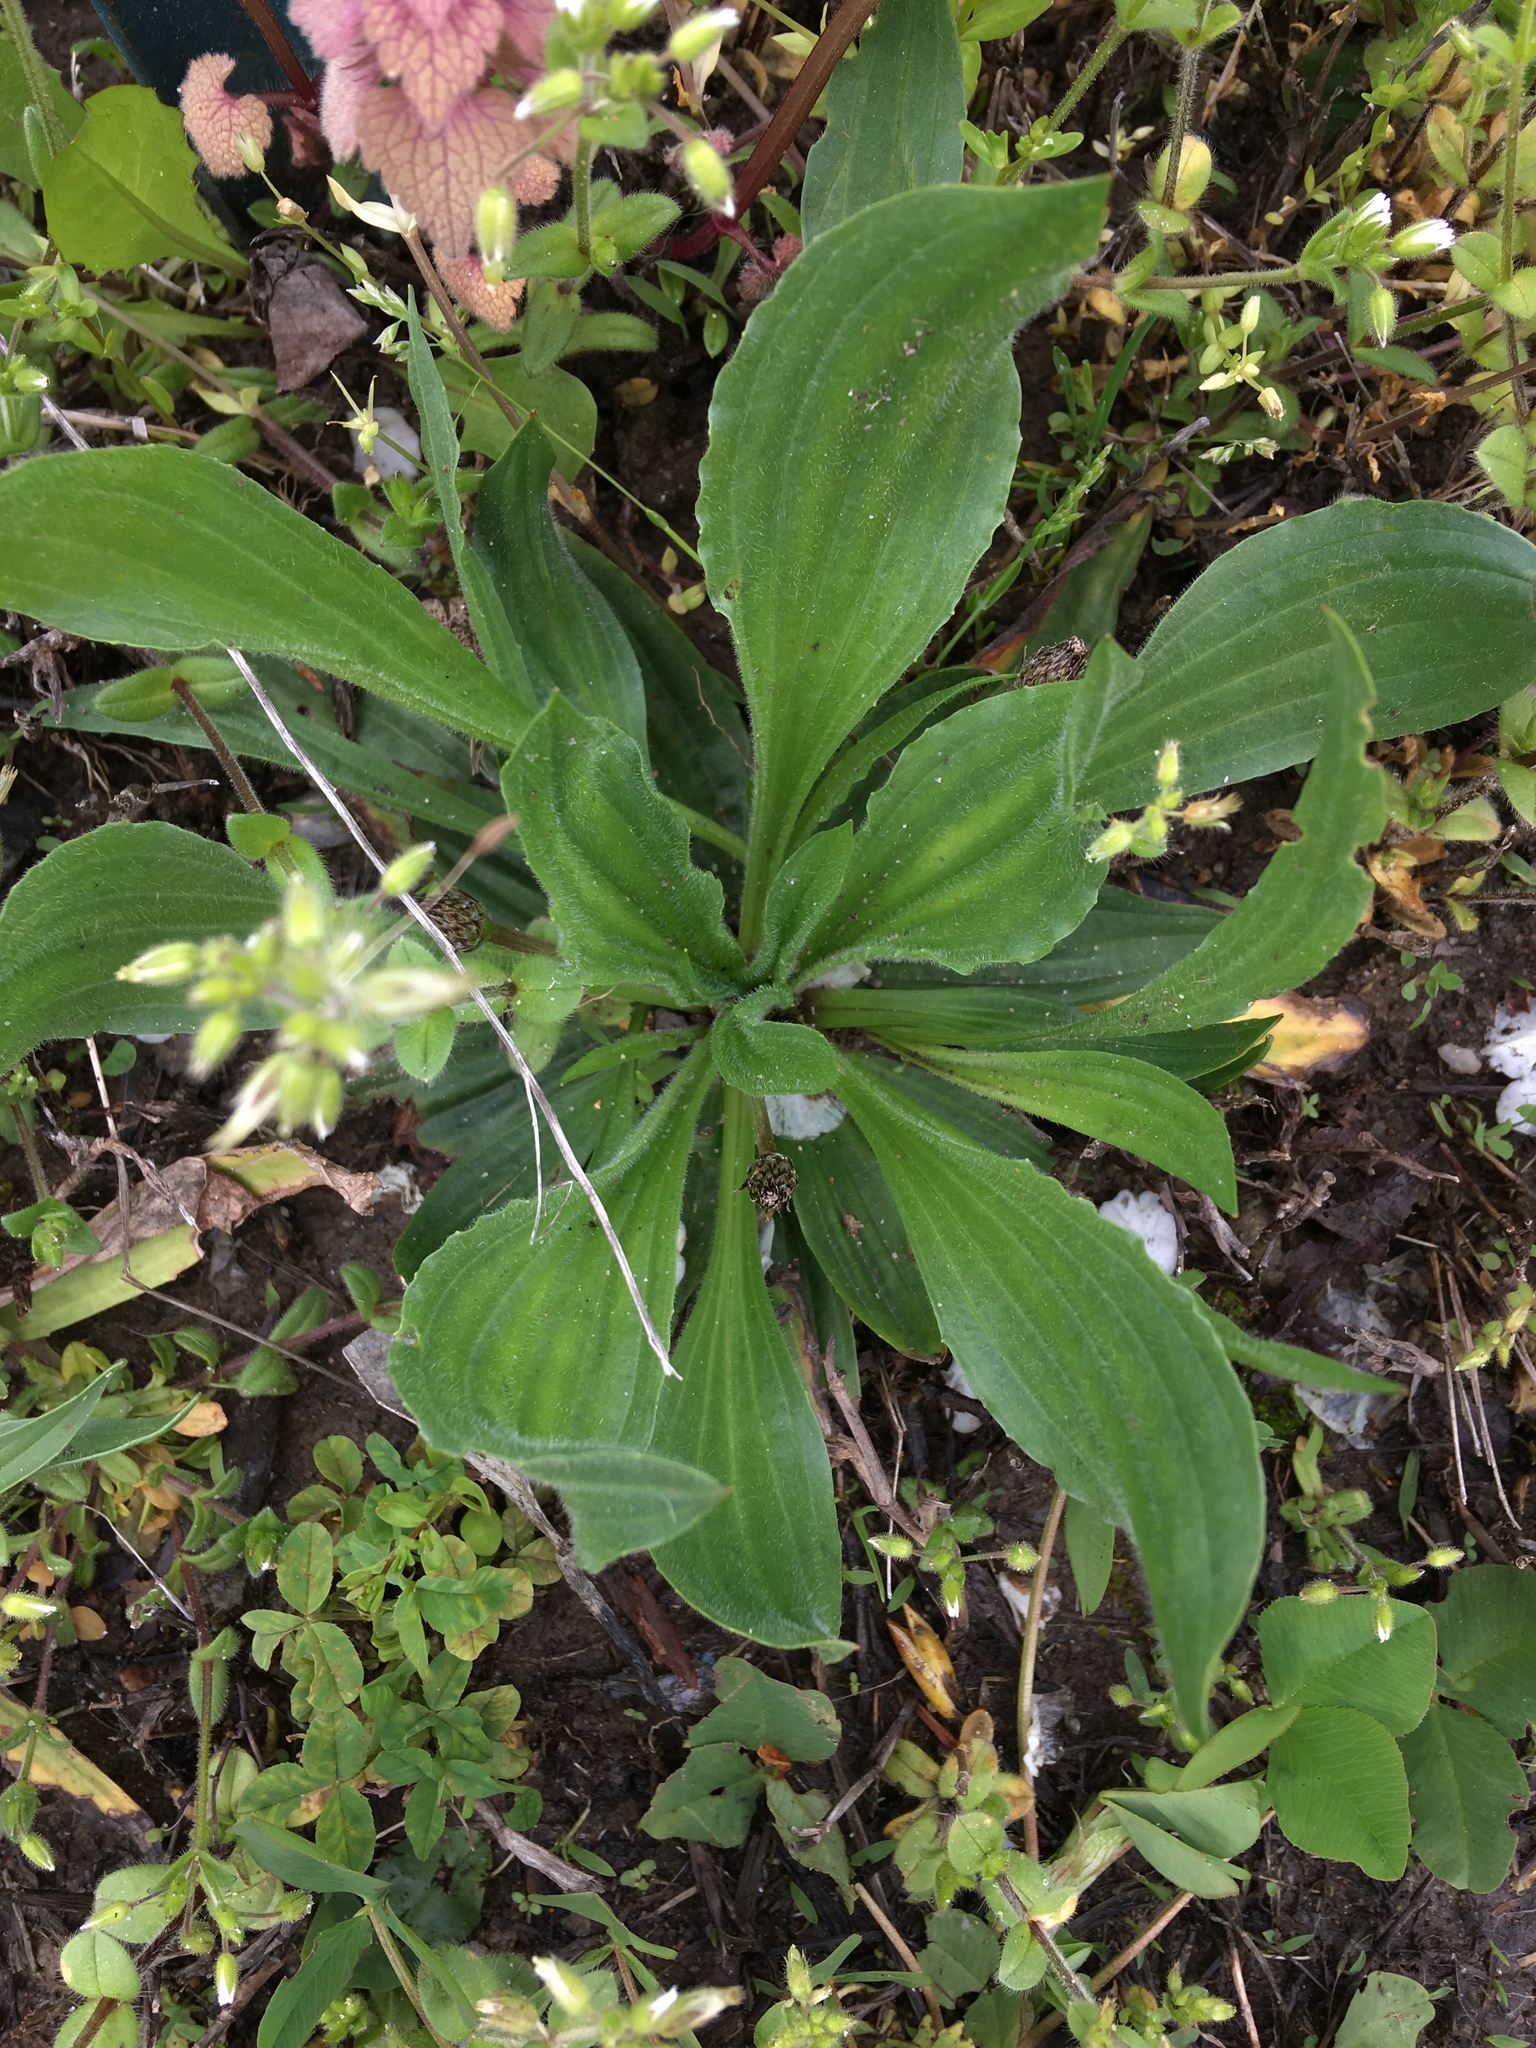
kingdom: Plantae
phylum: Tracheophyta
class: Magnoliopsida
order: Lamiales
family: Plantaginaceae
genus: Plantago
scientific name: Plantago lanceolata
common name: Ribwort plantain
